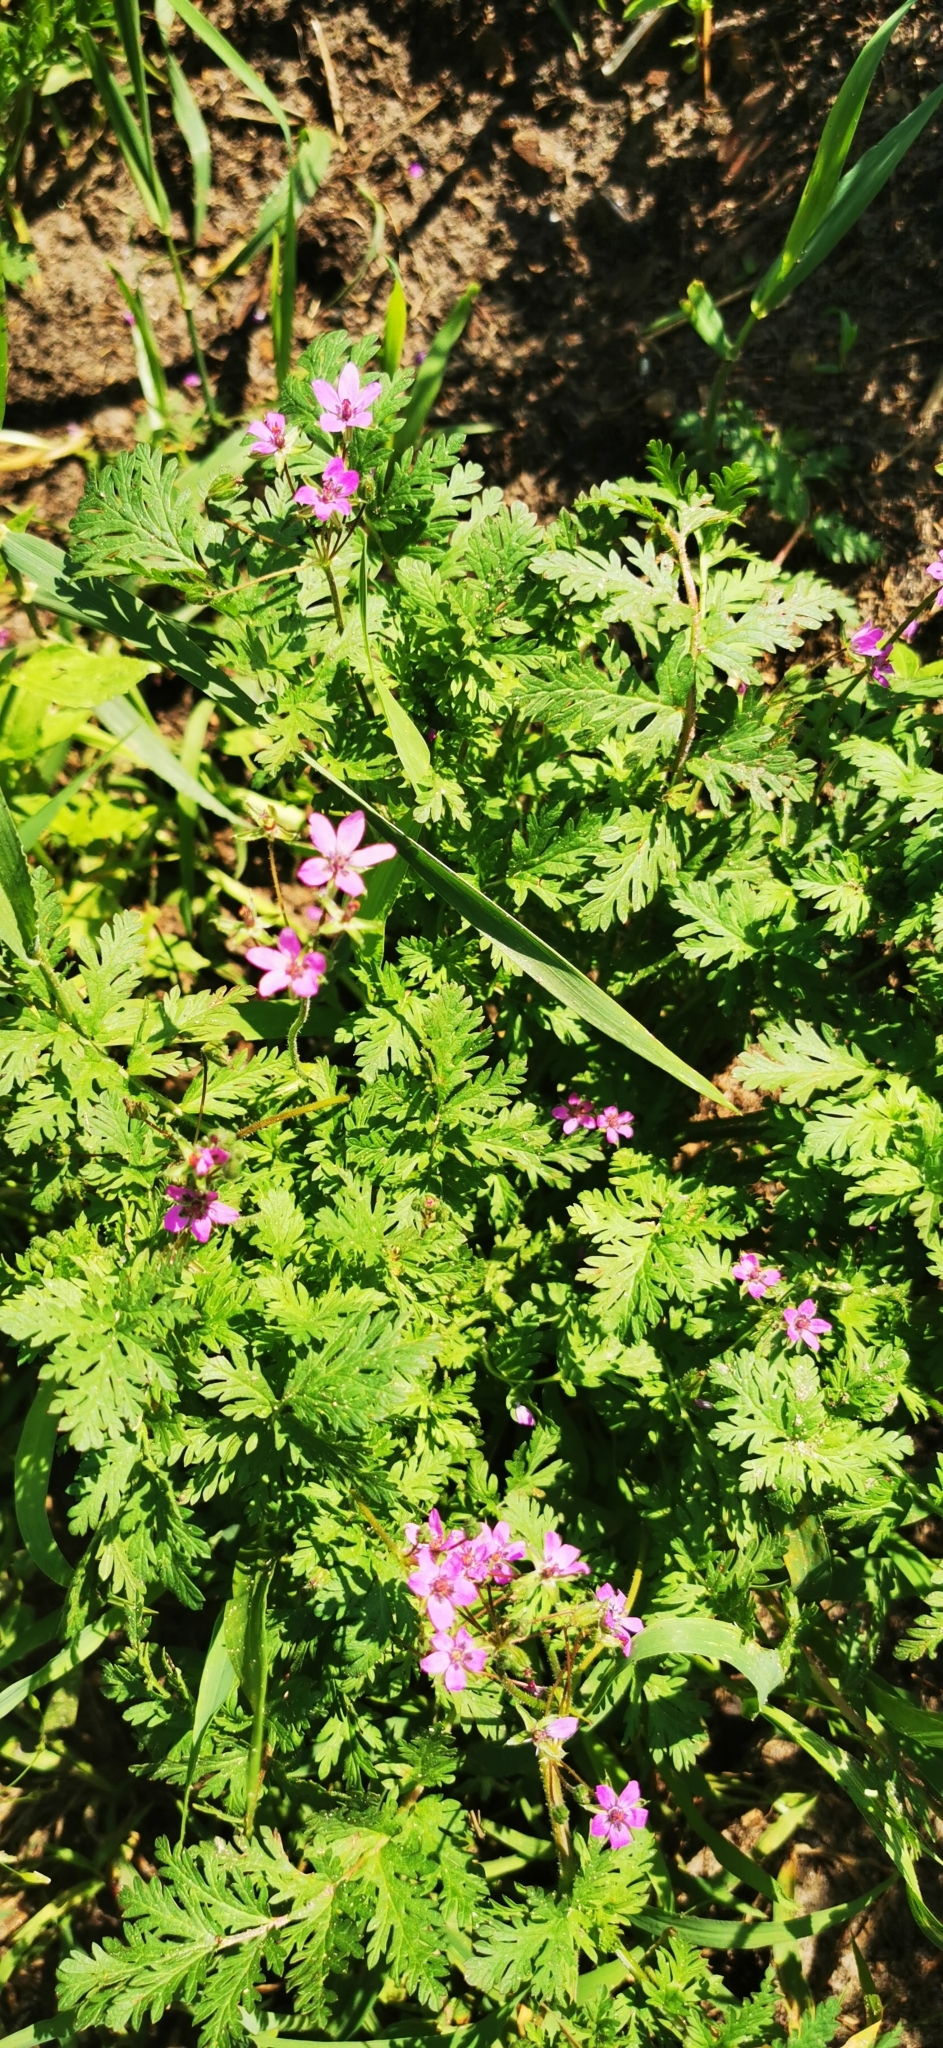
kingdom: Plantae
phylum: Tracheophyta
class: Magnoliopsida
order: Geraniales
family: Geraniaceae
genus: Erodium
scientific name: Erodium cicutarium
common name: Common stork's-bill
